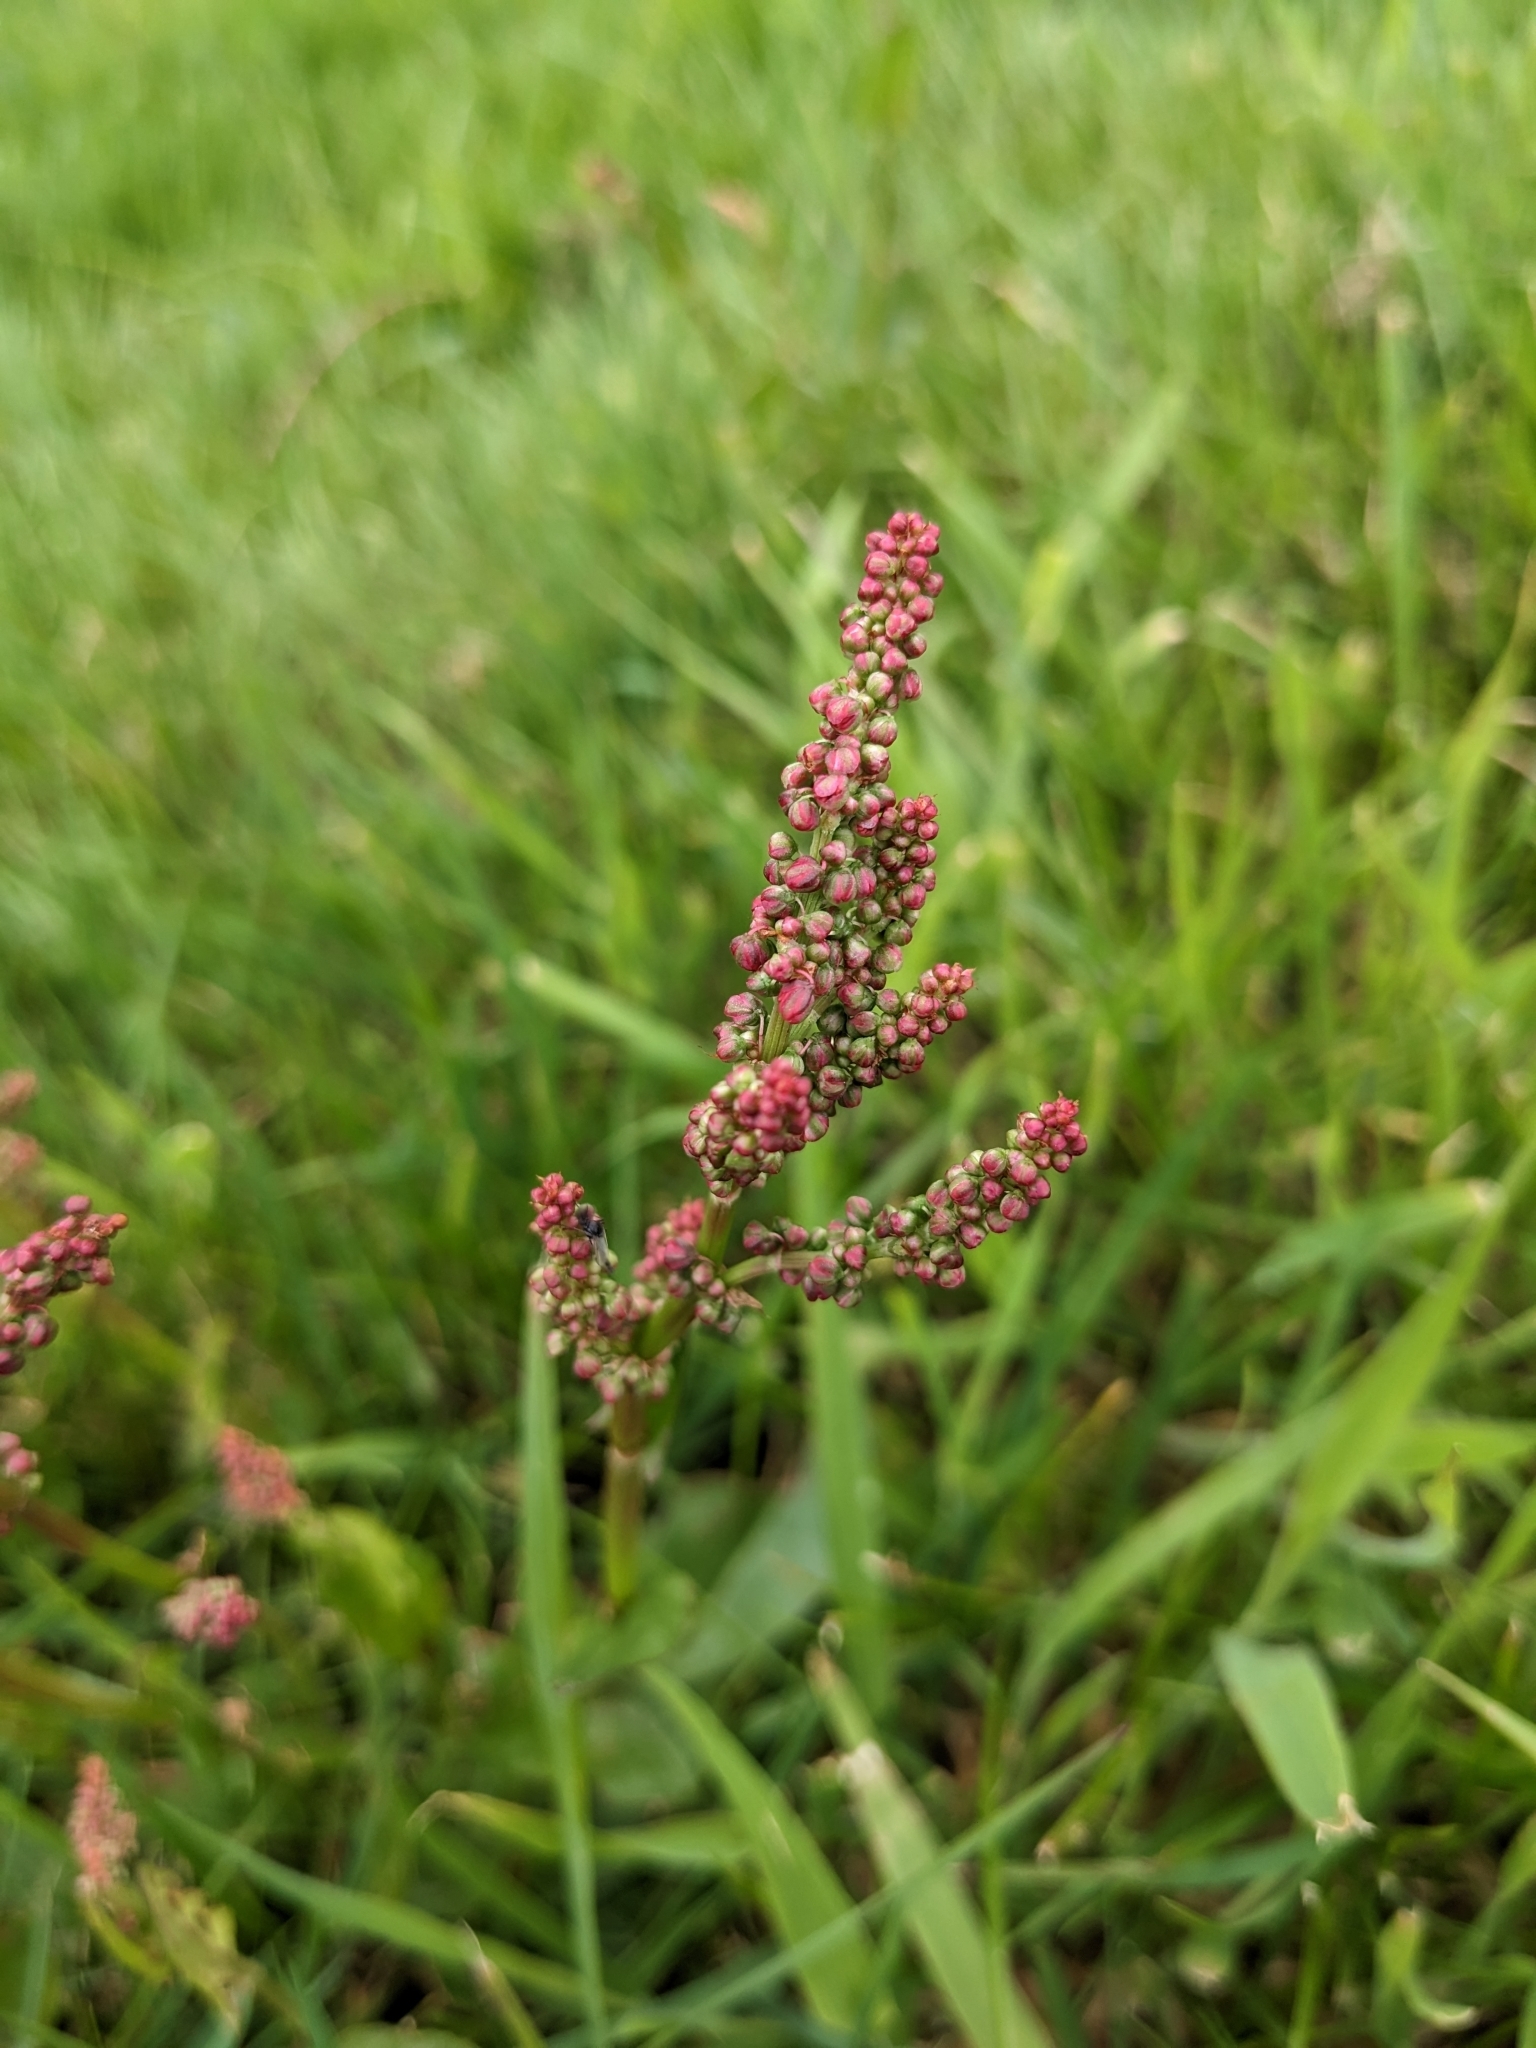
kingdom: Plantae
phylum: Tracheophyta
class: Magnoliopsida
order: Caryophyllales
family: Polygonaceae
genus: Rumex
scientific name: Rumex acetosa
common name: Garden sorrel
